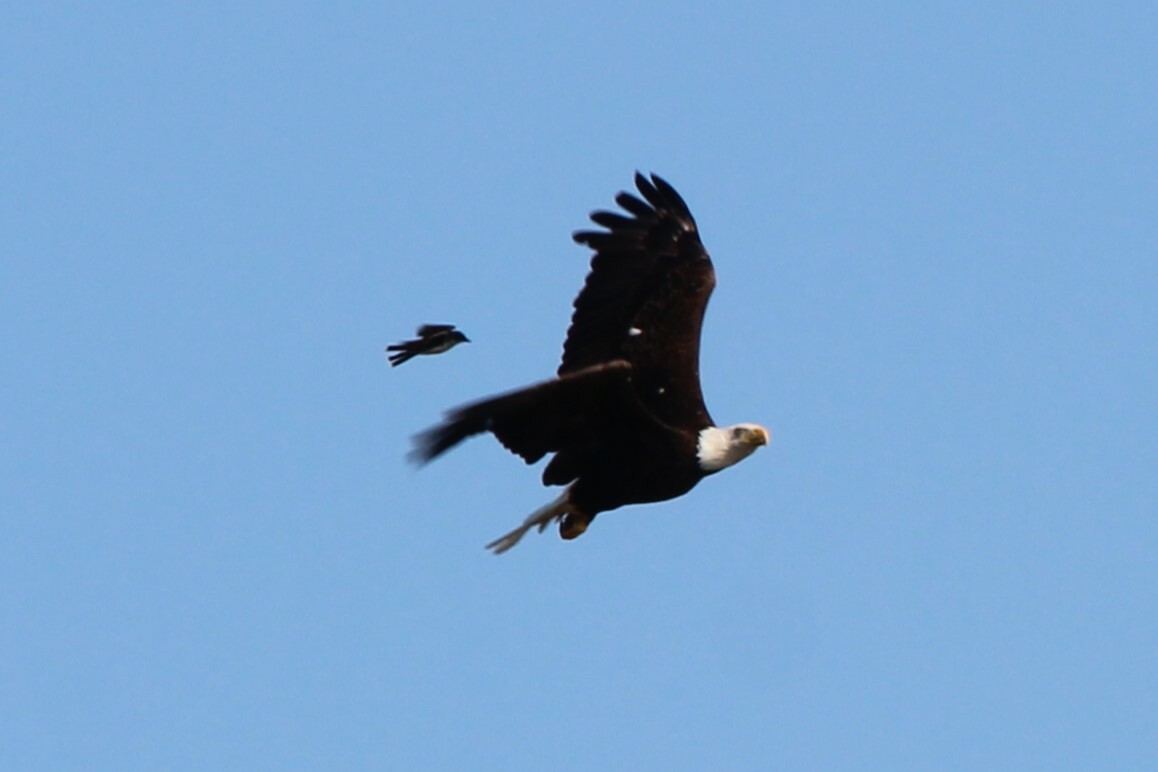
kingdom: Animalia
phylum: Chordata
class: Aves
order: Accipitriformes
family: Accipitridae
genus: Haliaeetus
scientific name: Haliaeetus leucocephalus
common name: Bald eagle
